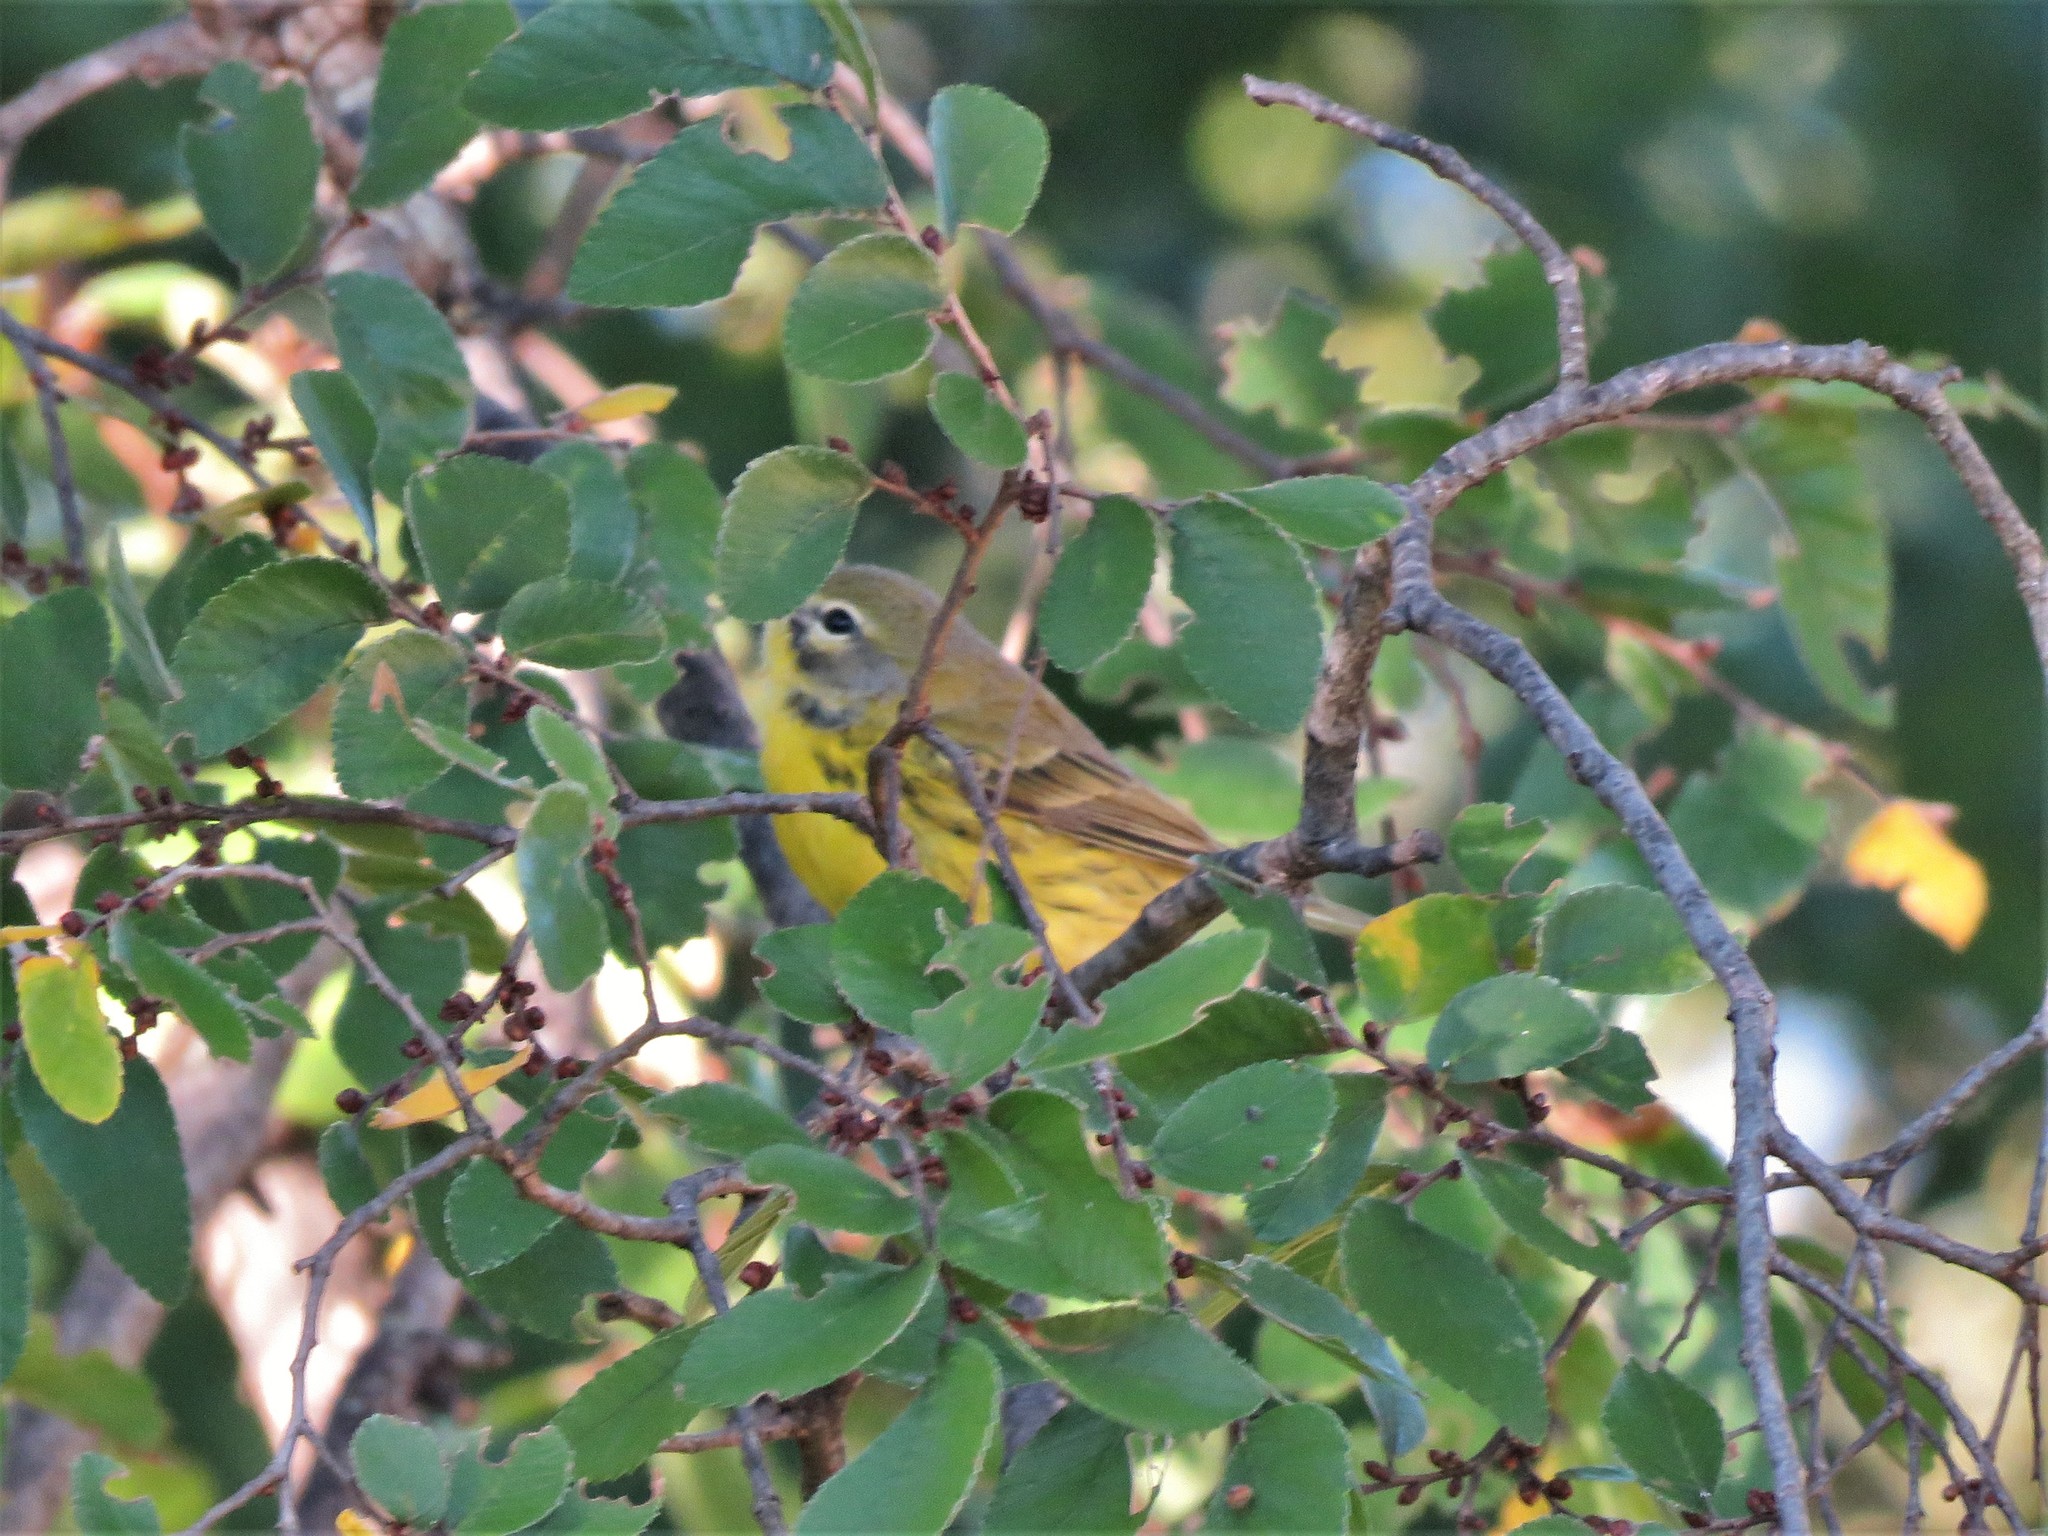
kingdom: Animalia
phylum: Chordata
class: Aves
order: Passeriformes
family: Parulidae
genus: Setophaga
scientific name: Setophaga discolor
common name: Prairie warbler
